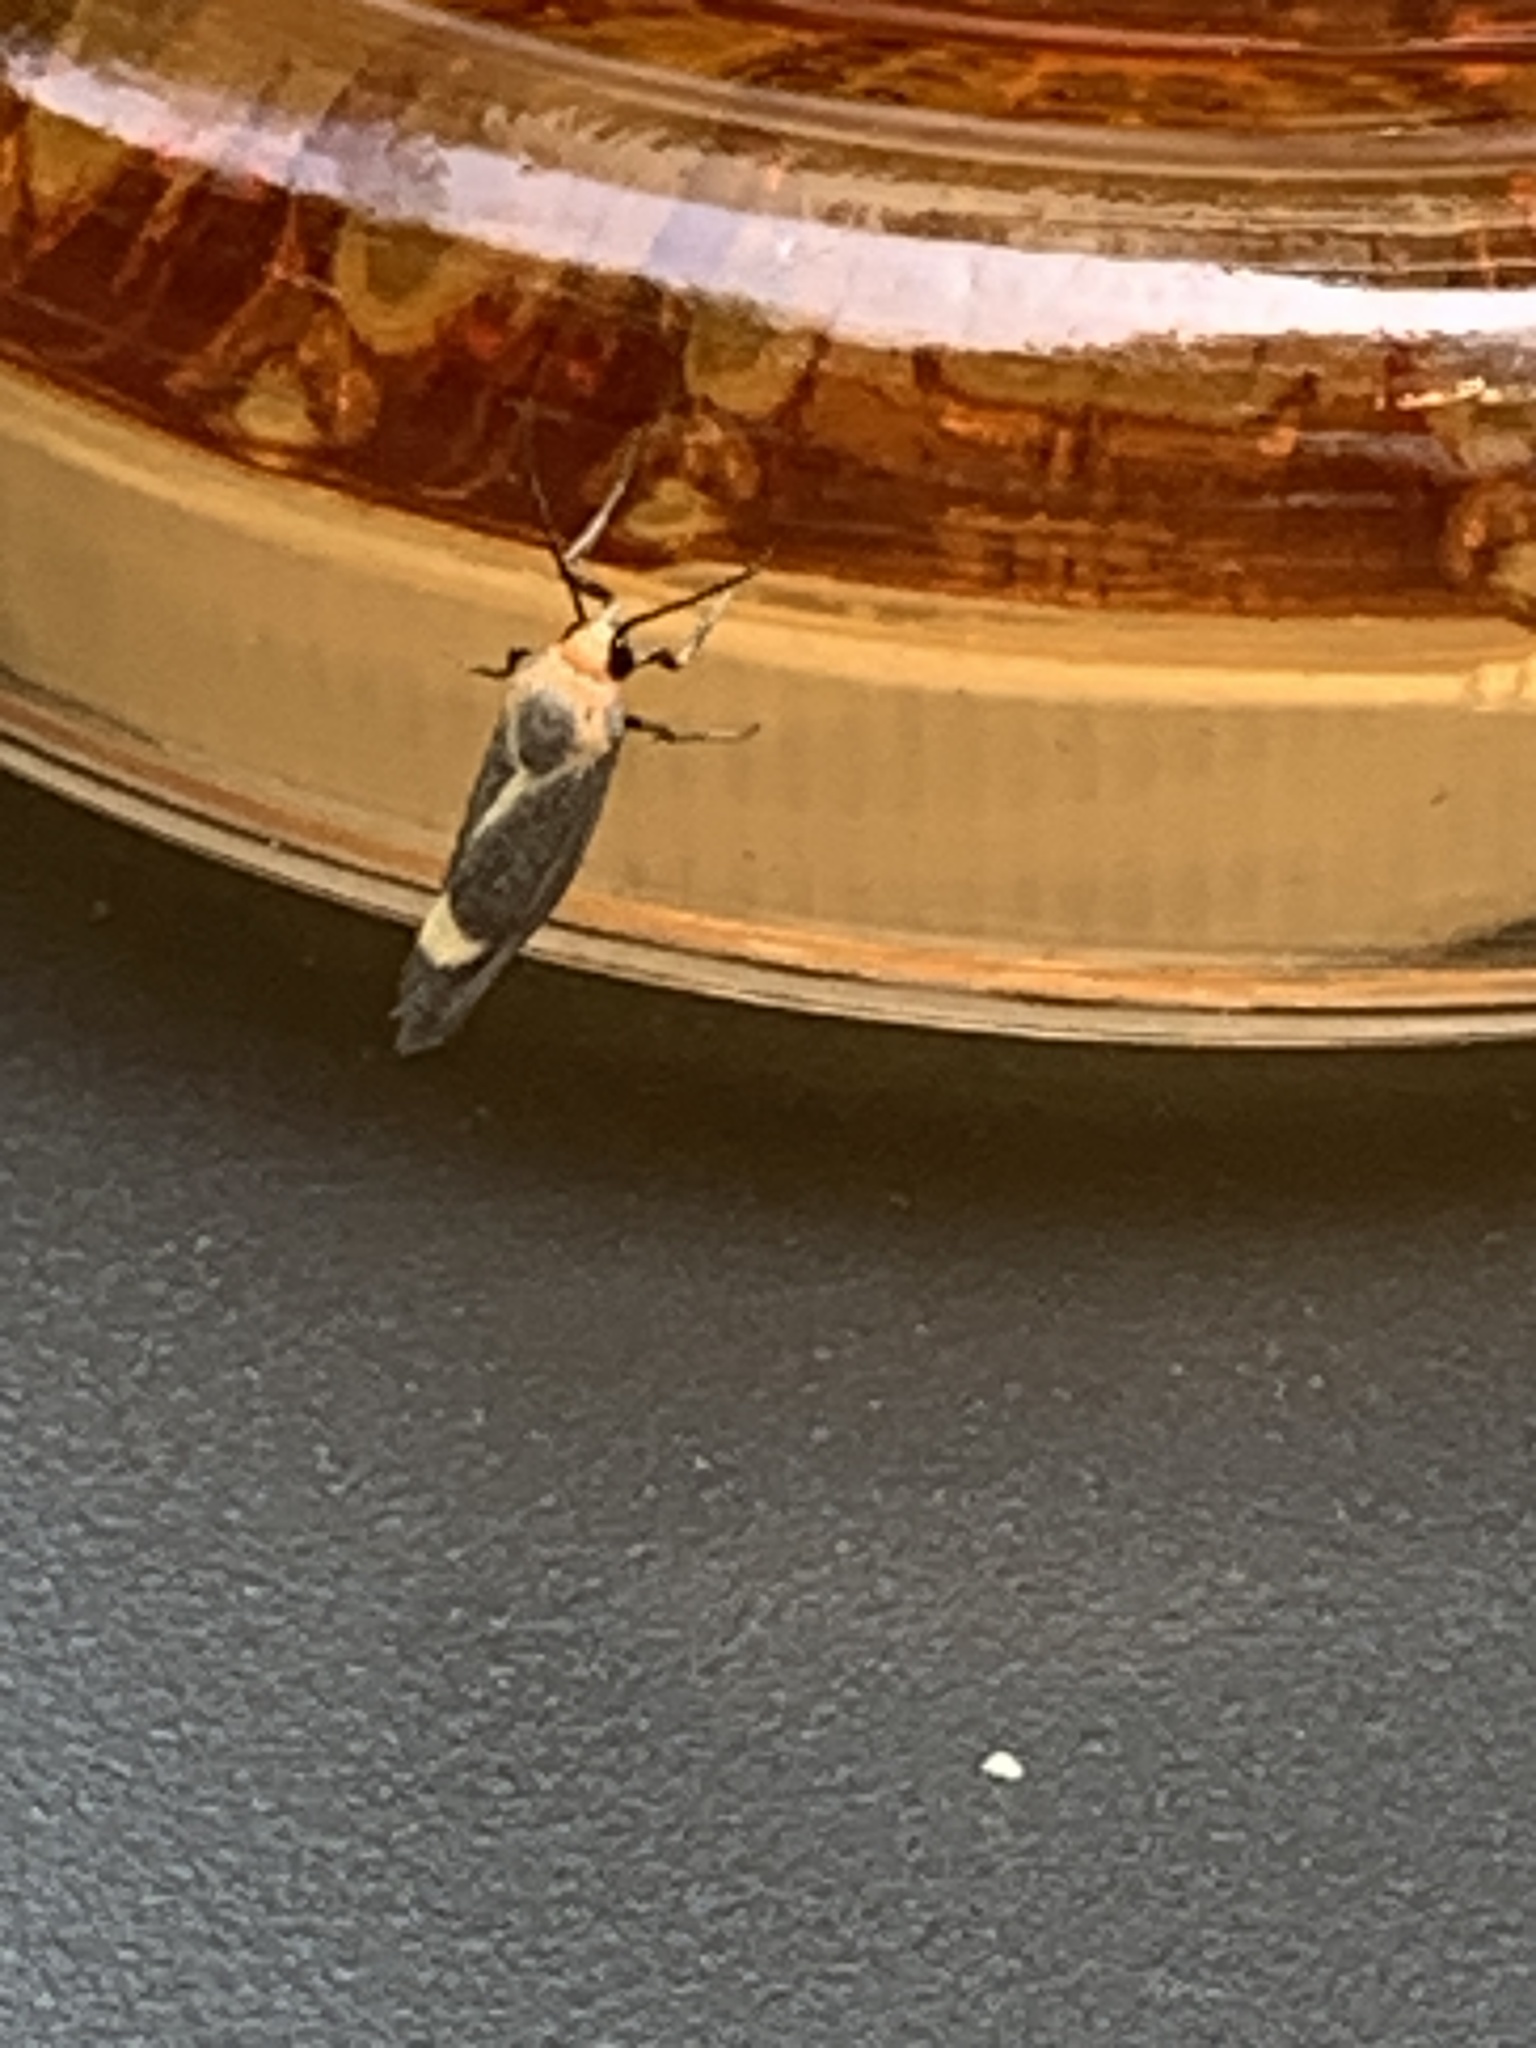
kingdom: Animalia
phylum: Arthropoda
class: Insecta
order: Lepidoptera
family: Erebidae
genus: Cisthene
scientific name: Cisthene plumbea
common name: Lead colored lichen moth
